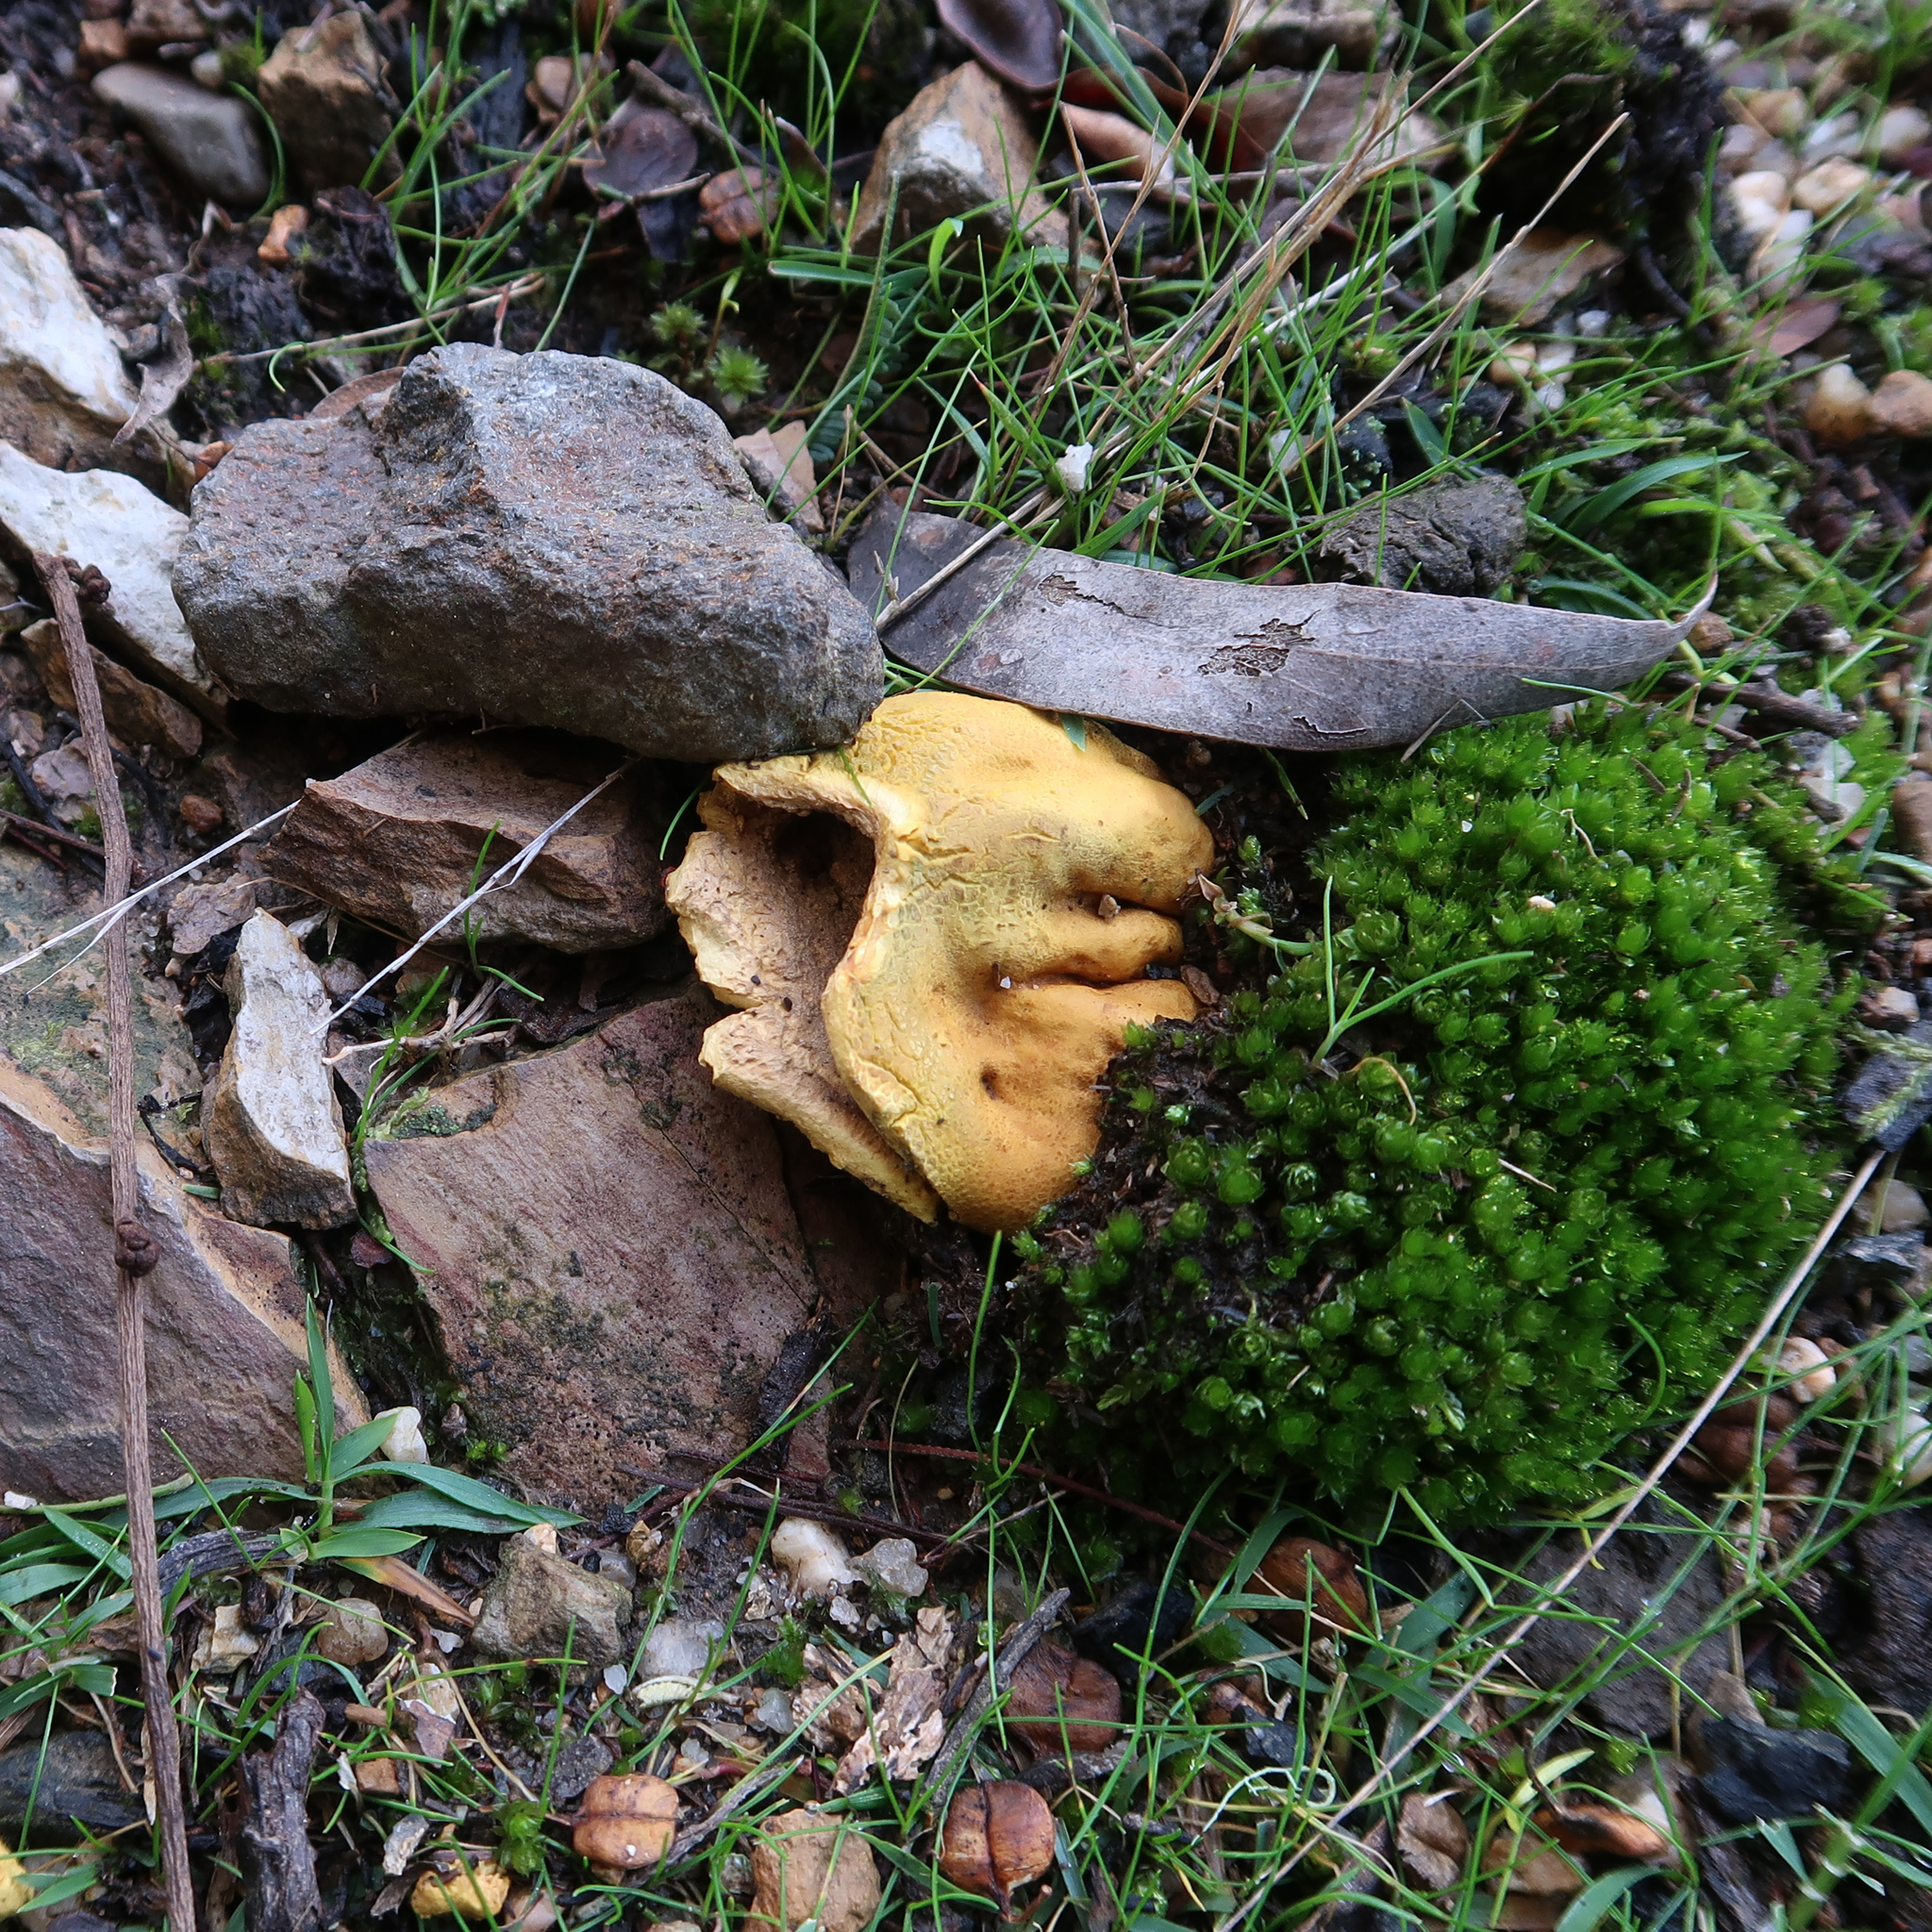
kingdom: Fungi
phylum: Basidiomycota
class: Agaricomycetes
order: Boletales
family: Sclerodermataceae
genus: Scleroderma
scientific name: Scleroderma cepa
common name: Onion earthball
